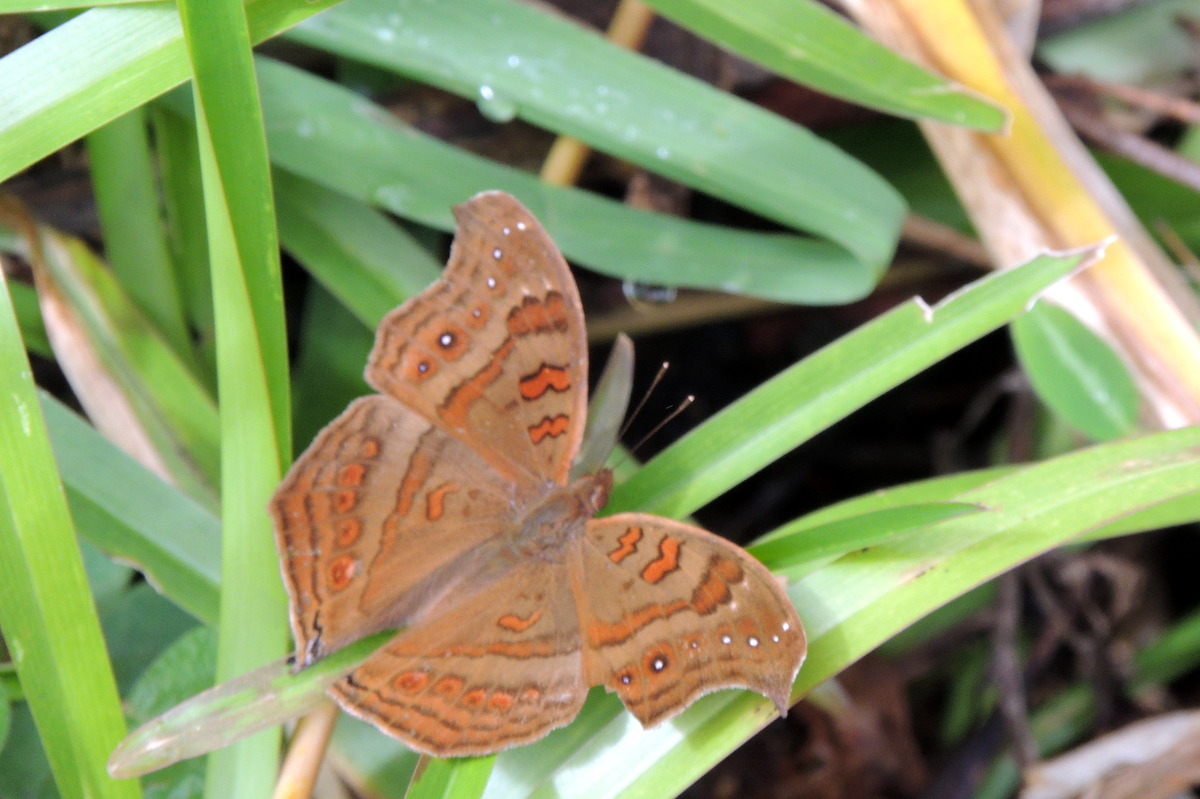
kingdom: Animalia
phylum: Arthropoda
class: Insecta
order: Lepidoptera
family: Nymphalidae
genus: Junonia
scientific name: Junonia goudotii
